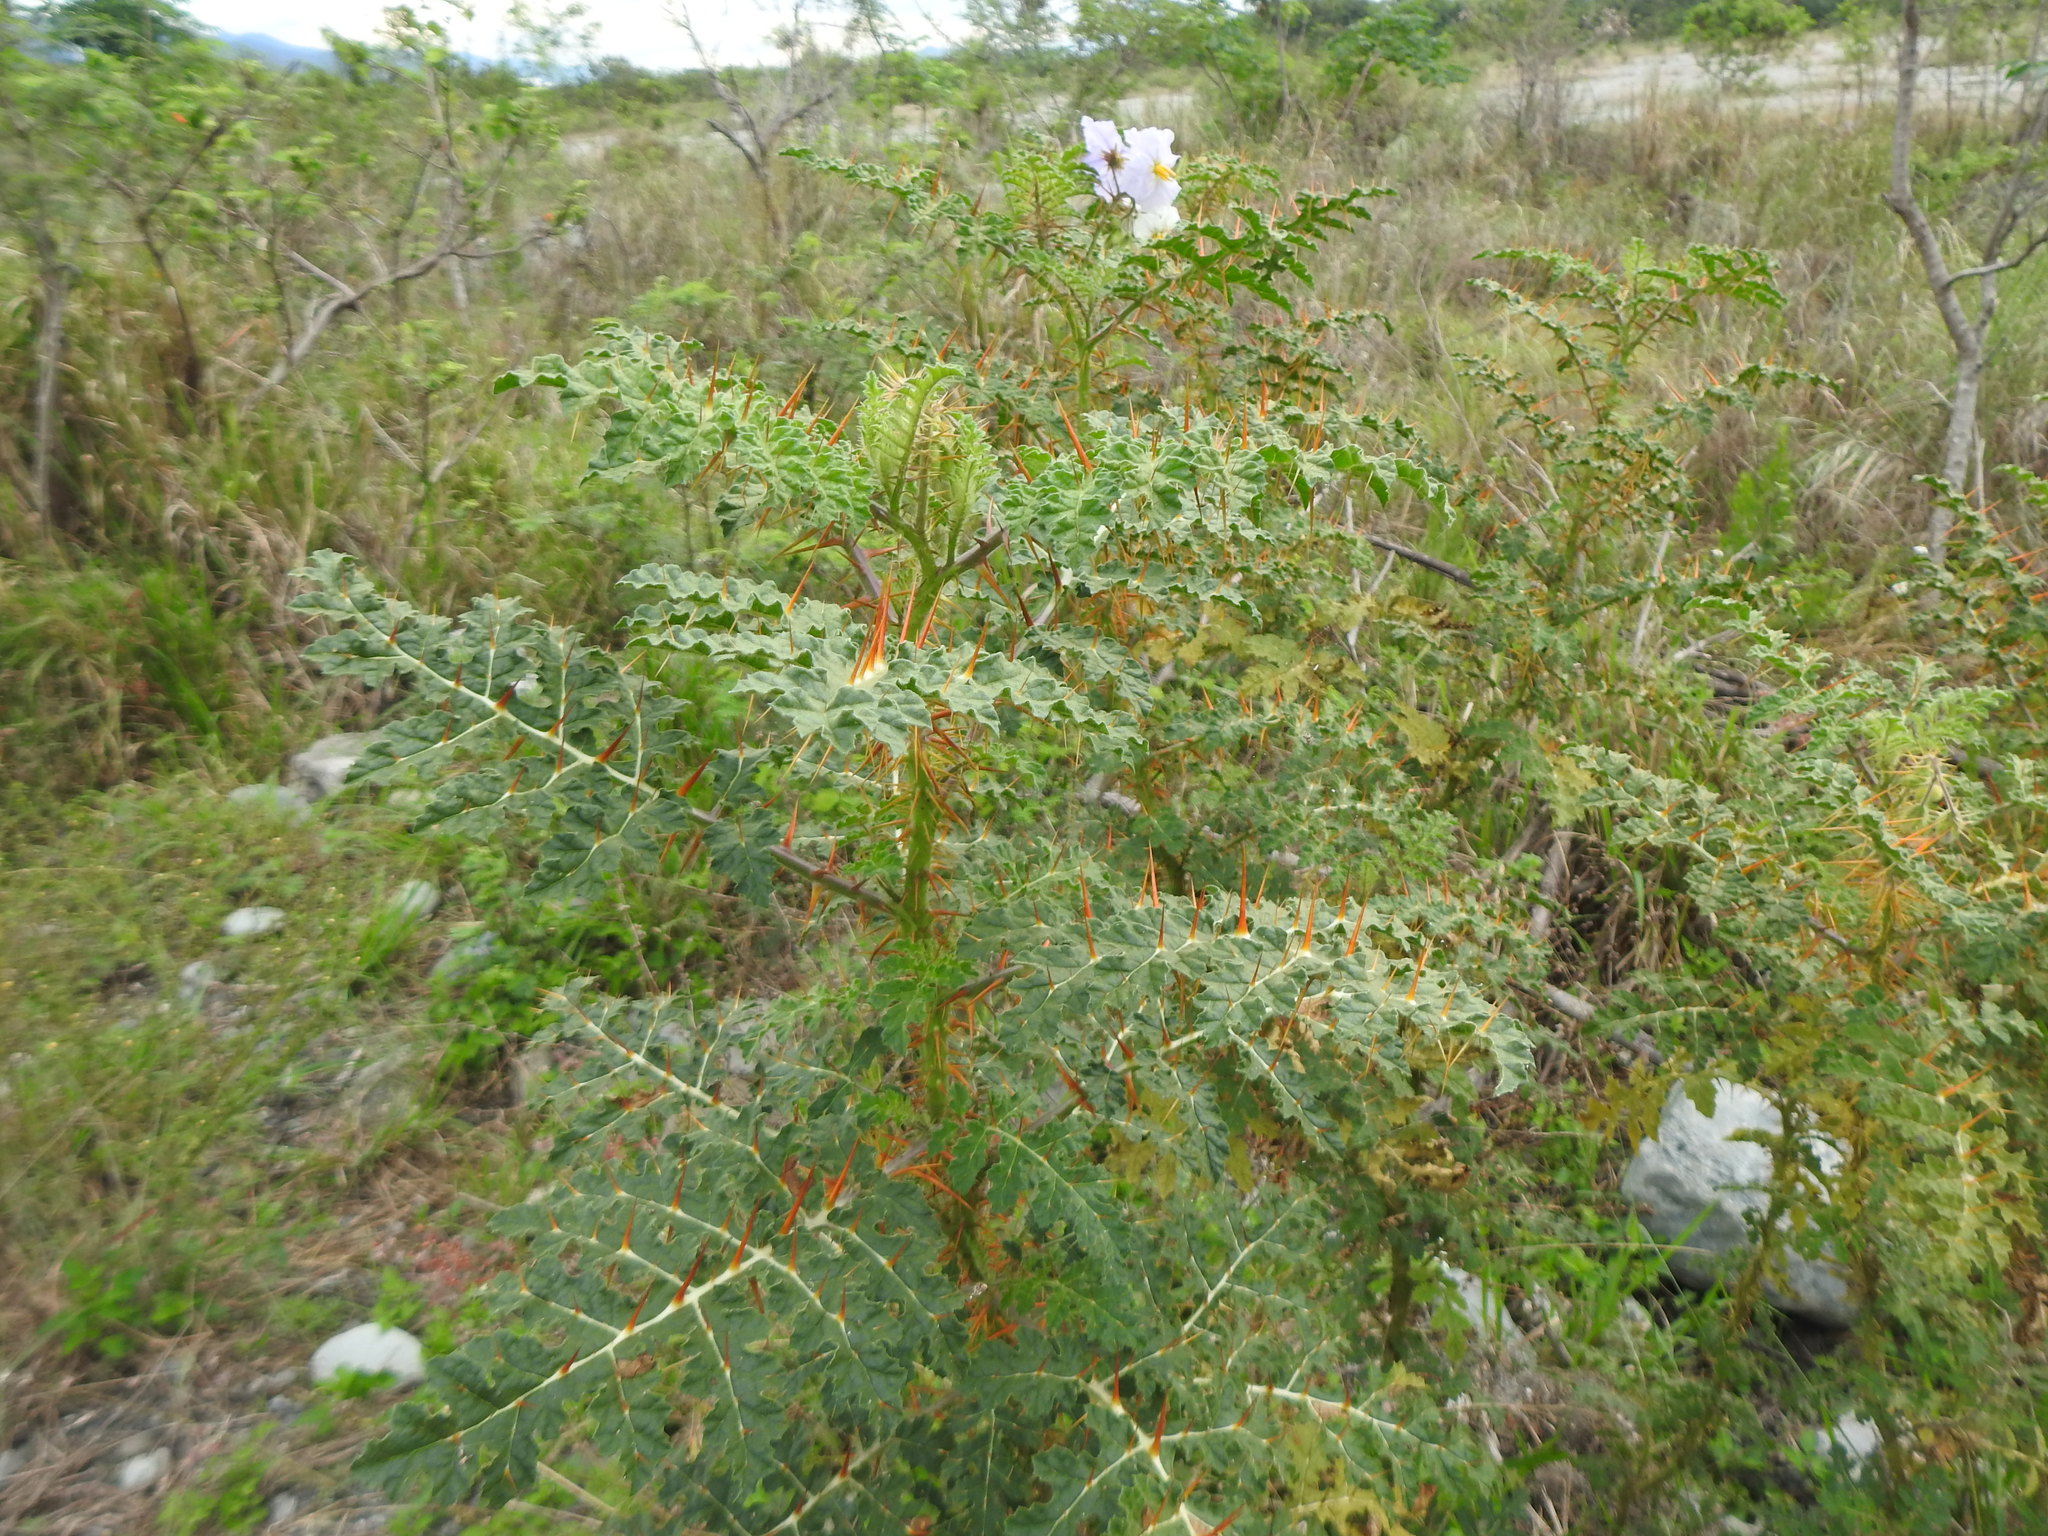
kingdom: Plantae
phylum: Tracheophyta
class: Magnoliopsida
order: Solanales
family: Solanaceae
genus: Solanum
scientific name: Solanum sisymbriifolium
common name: Red buffalo-bur
